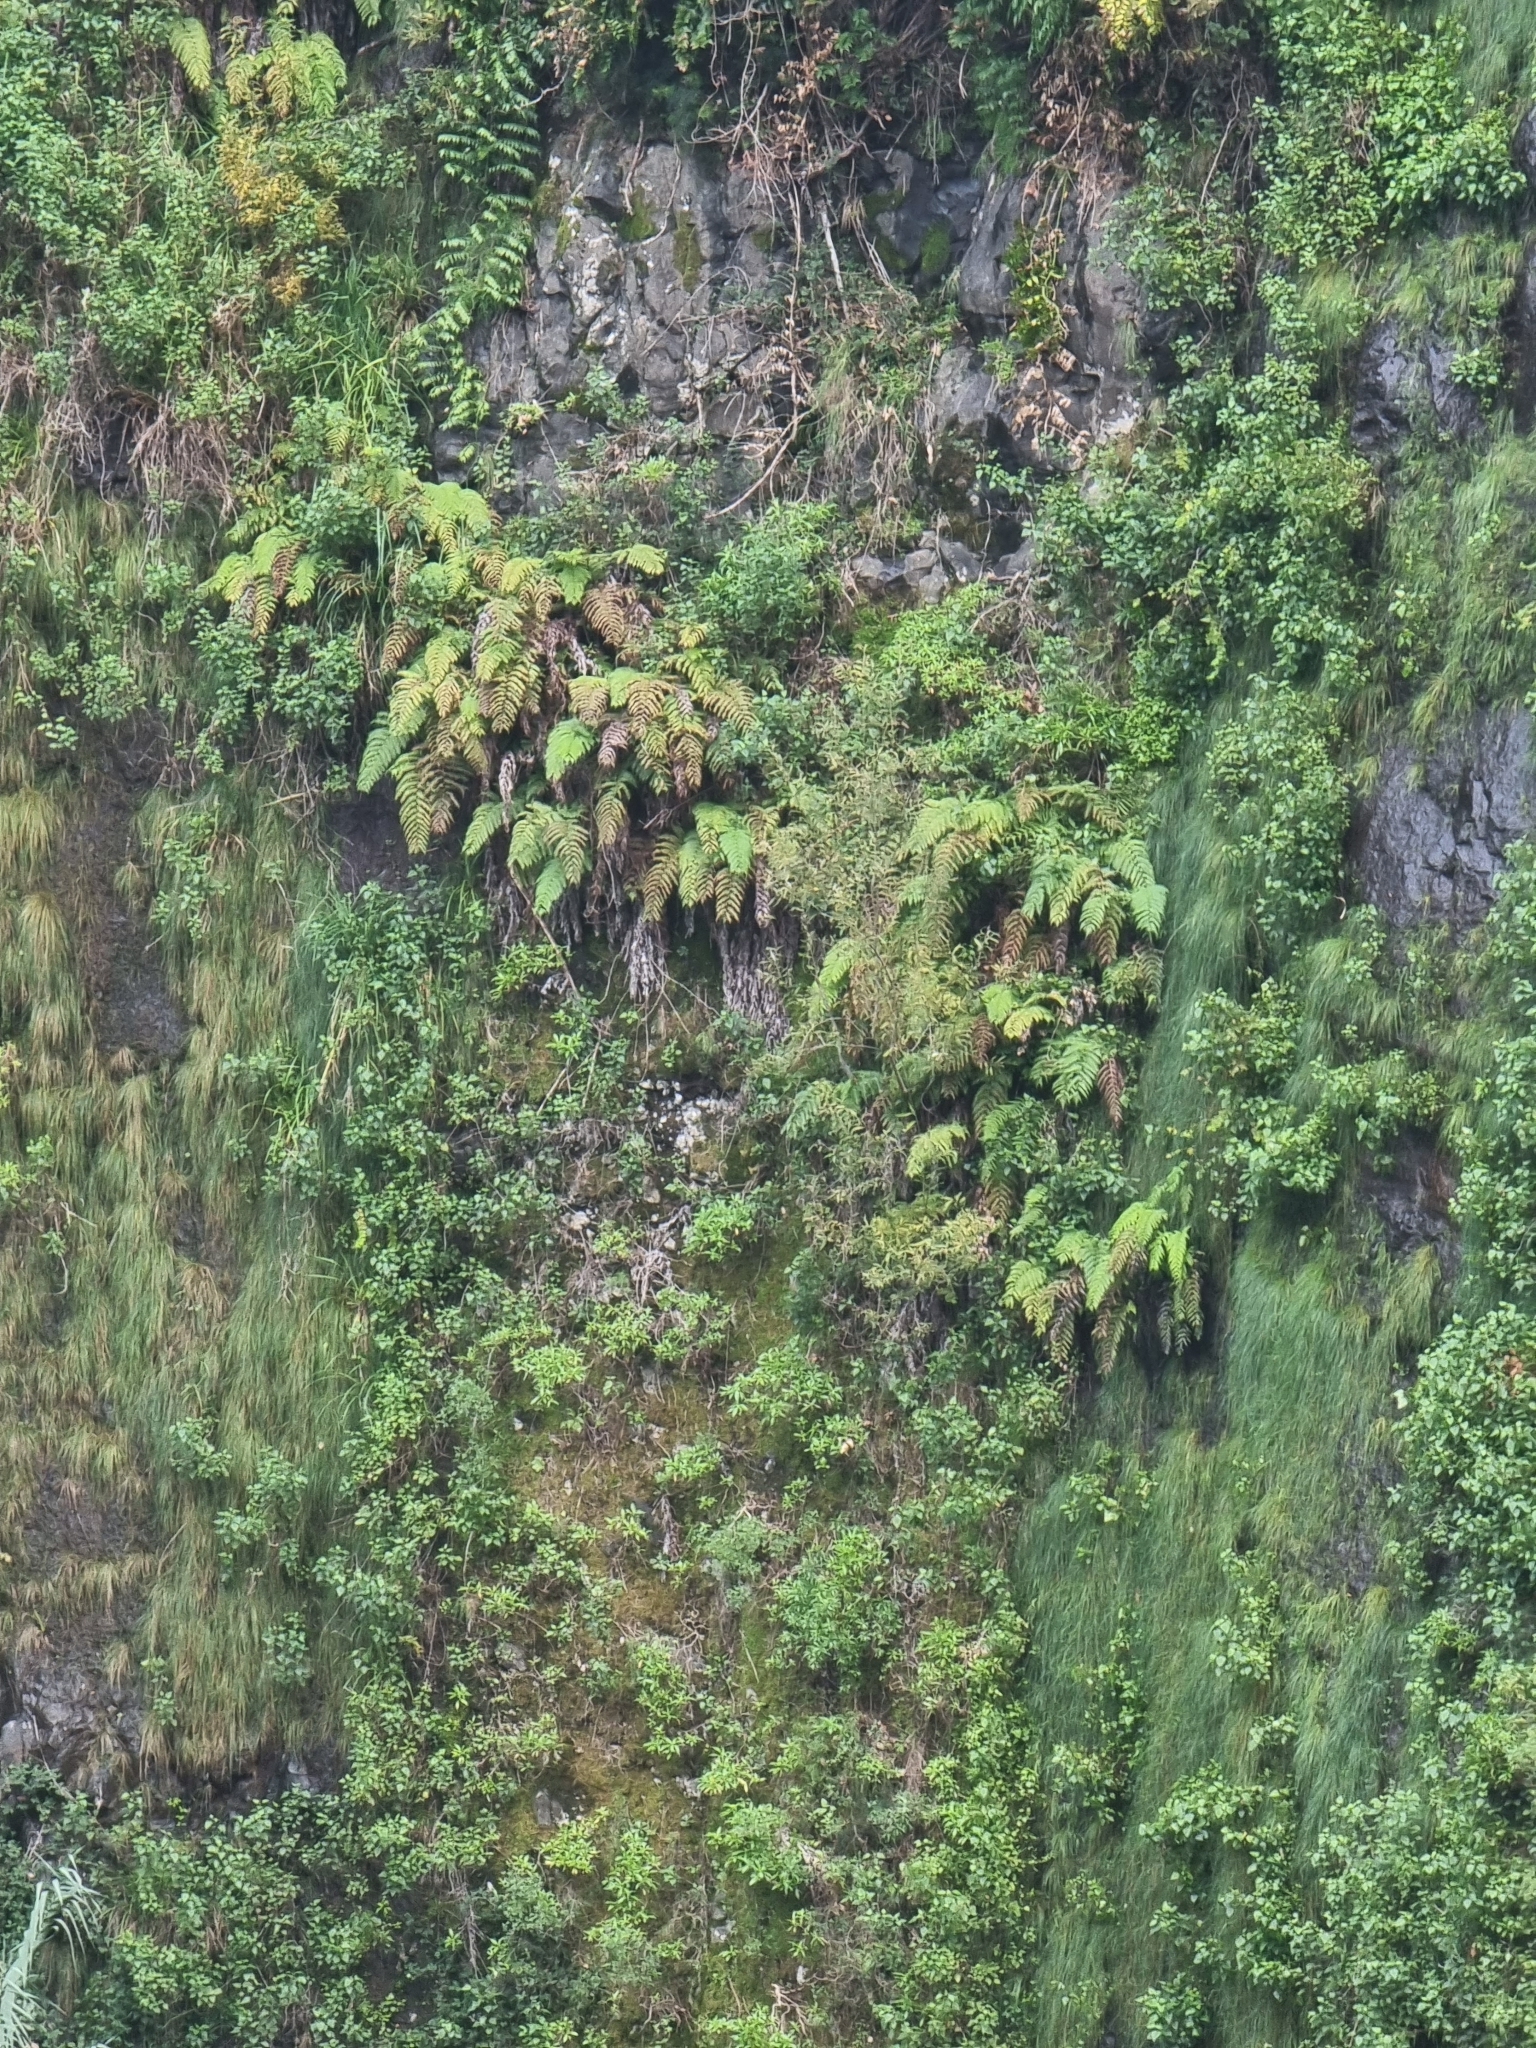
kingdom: Plantae
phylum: Tracheophyta
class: Polypodiopsida
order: Polypodiales
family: Blechnaceae
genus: Woodwardia
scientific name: Woodwardia radicans
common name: Rooting chainfern
